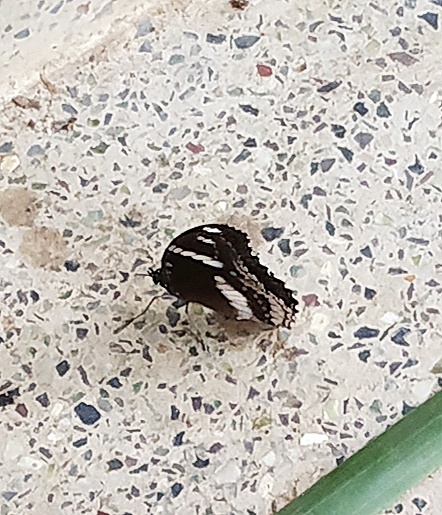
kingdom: Animalia
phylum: Arthropoda
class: Insecta
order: Lepidoptera
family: Nymphalidae
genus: Hypolimnas
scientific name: Hypolimnas bolina
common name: Great eggfly
